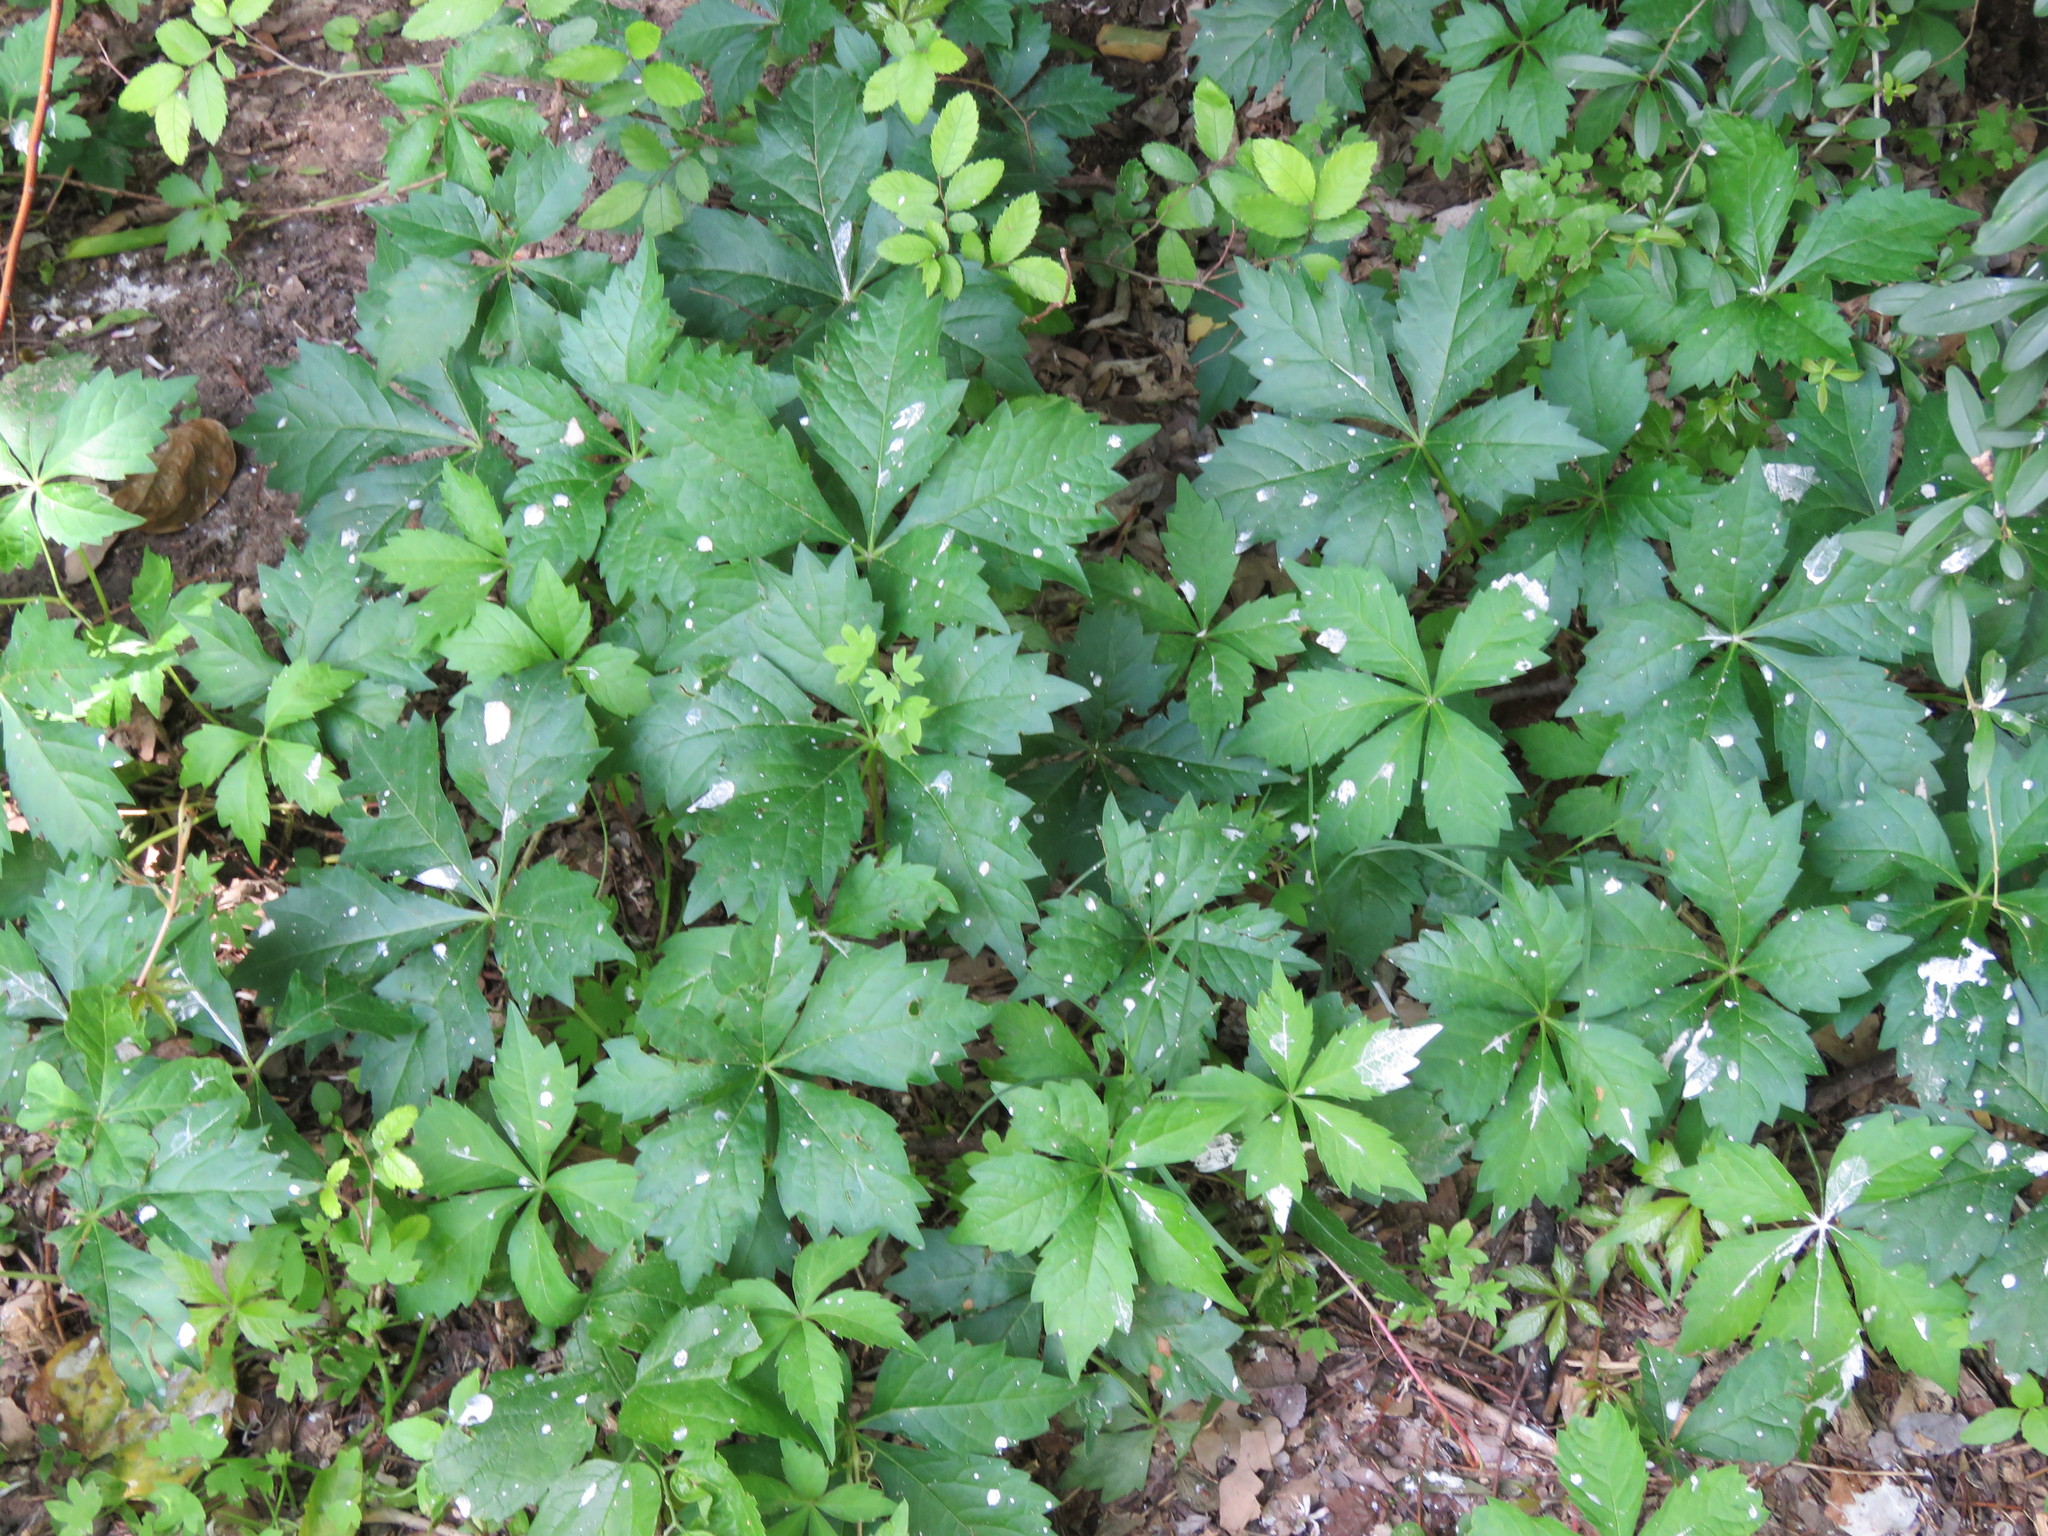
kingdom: Plantae
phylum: Tracheophyta
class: Magnoliopsida
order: Vitales
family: Vitaceae
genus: Parthenocissus
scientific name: Parthenocissus quinquefolia
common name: Virginia-creeper
